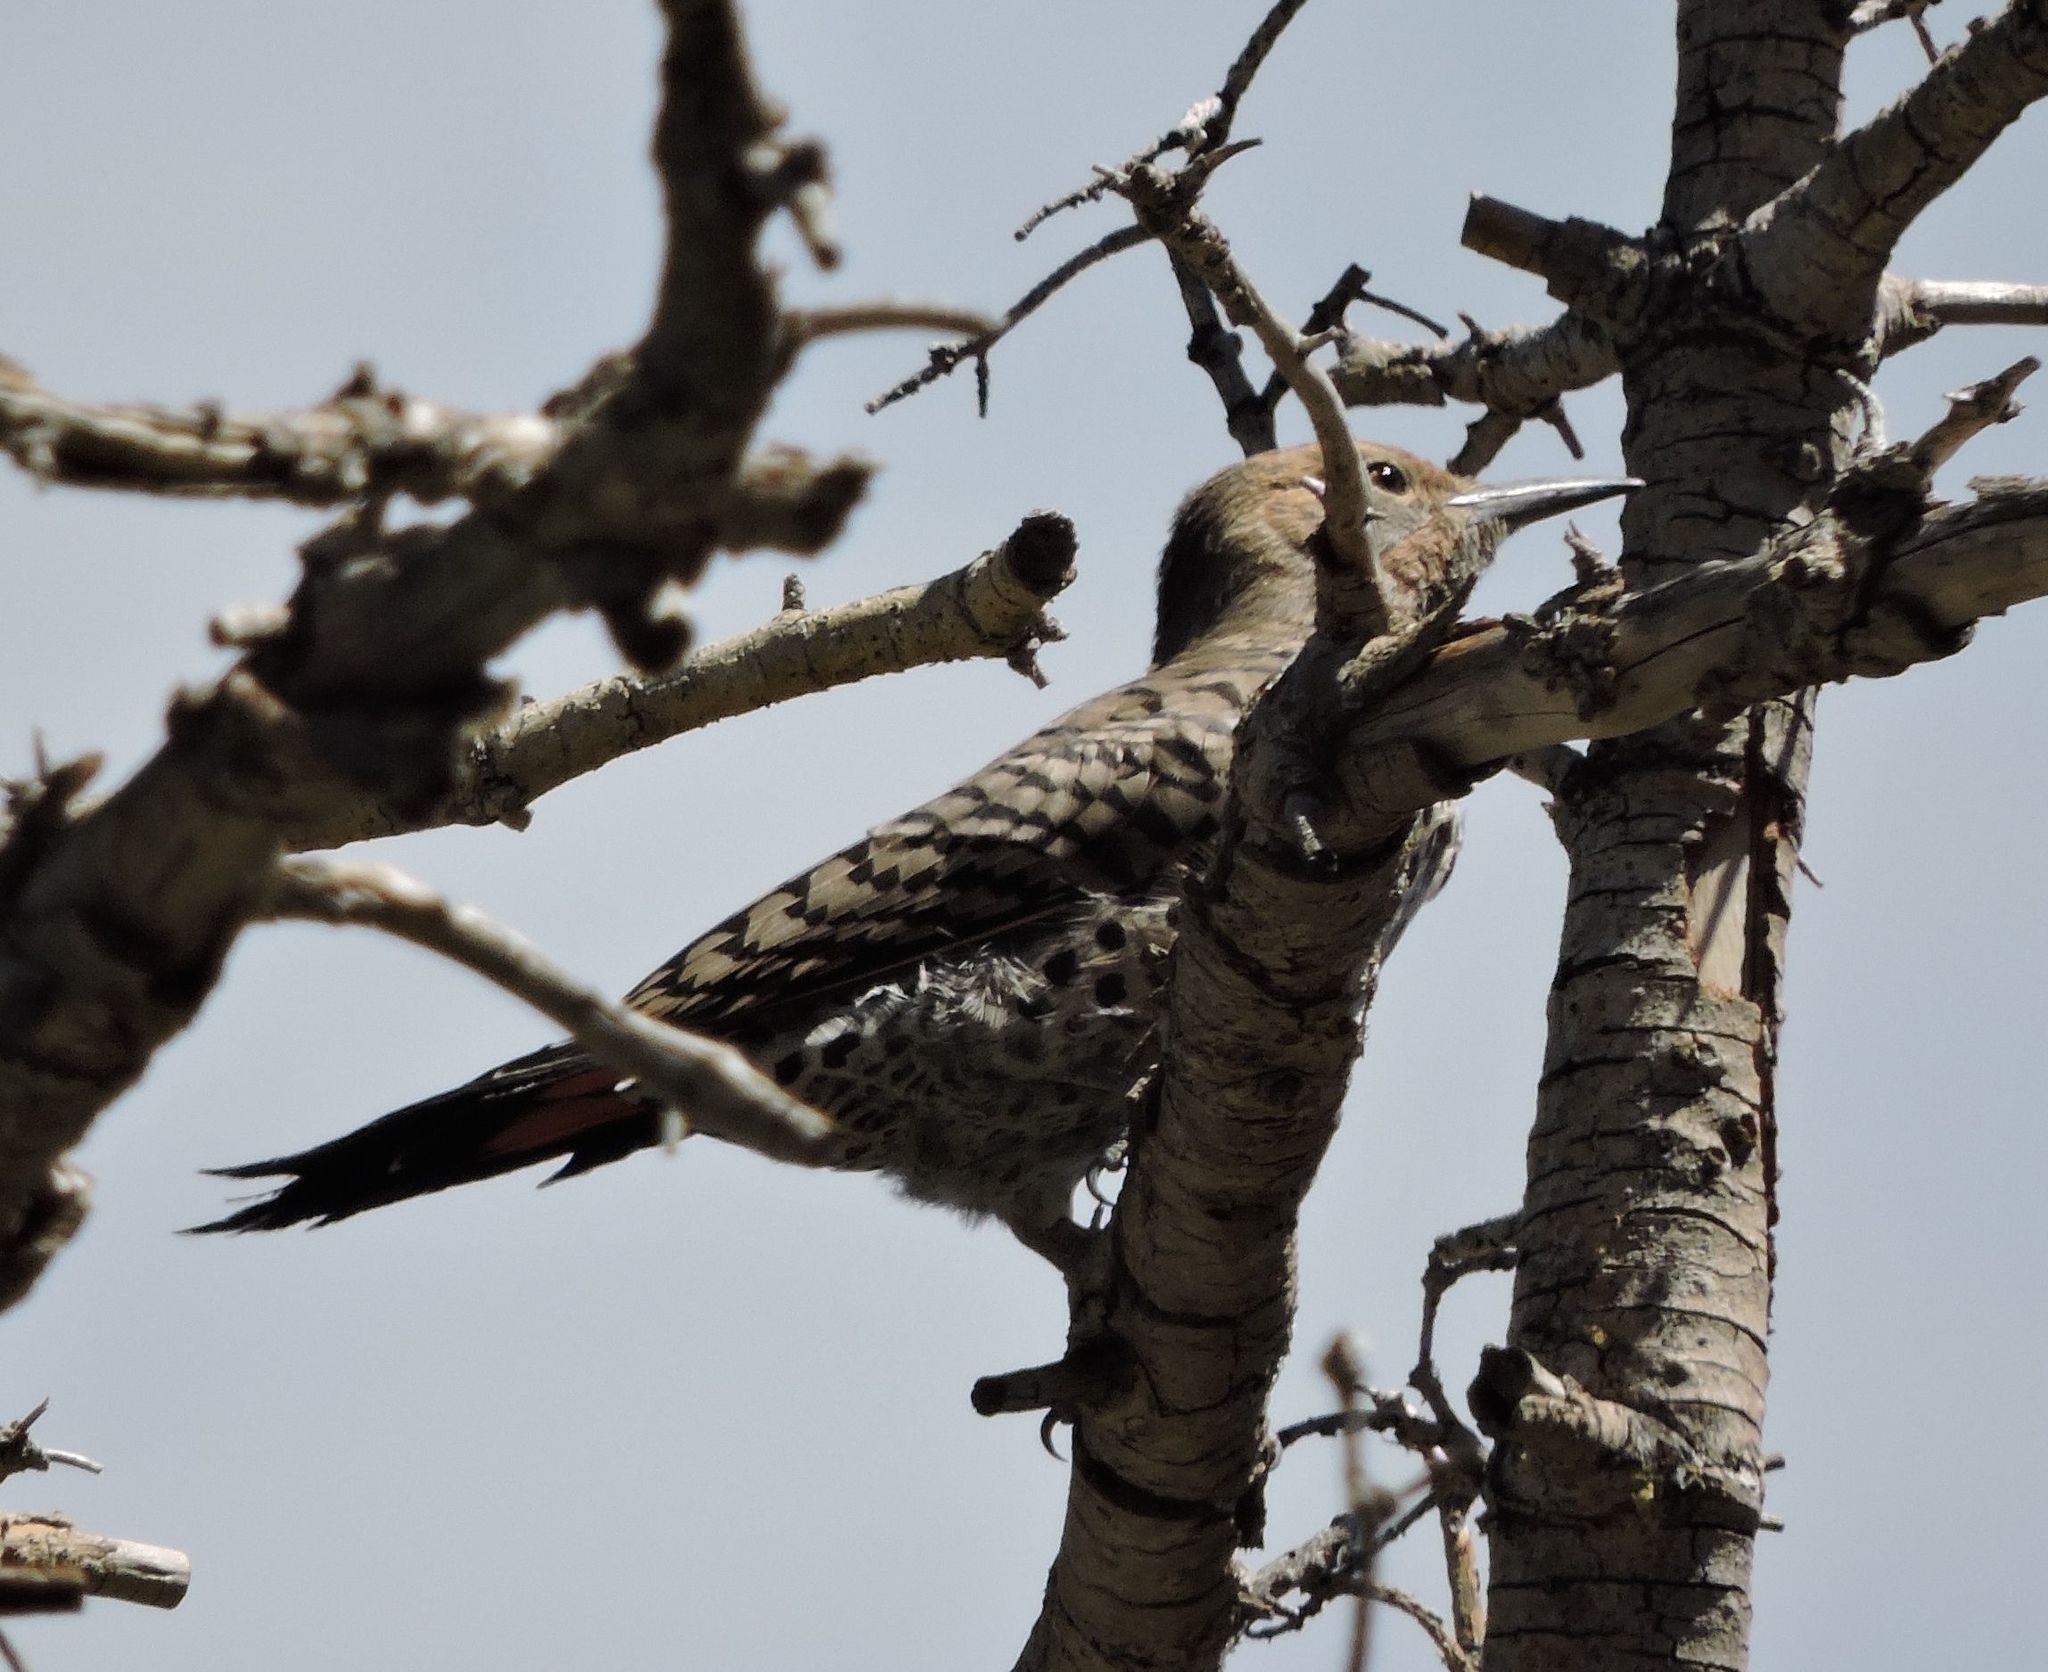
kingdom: Animalia
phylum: Chordata
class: Aves
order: Piciformes
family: Picidae
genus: Colaptes
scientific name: Colaptes auratus
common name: Northern flicker
